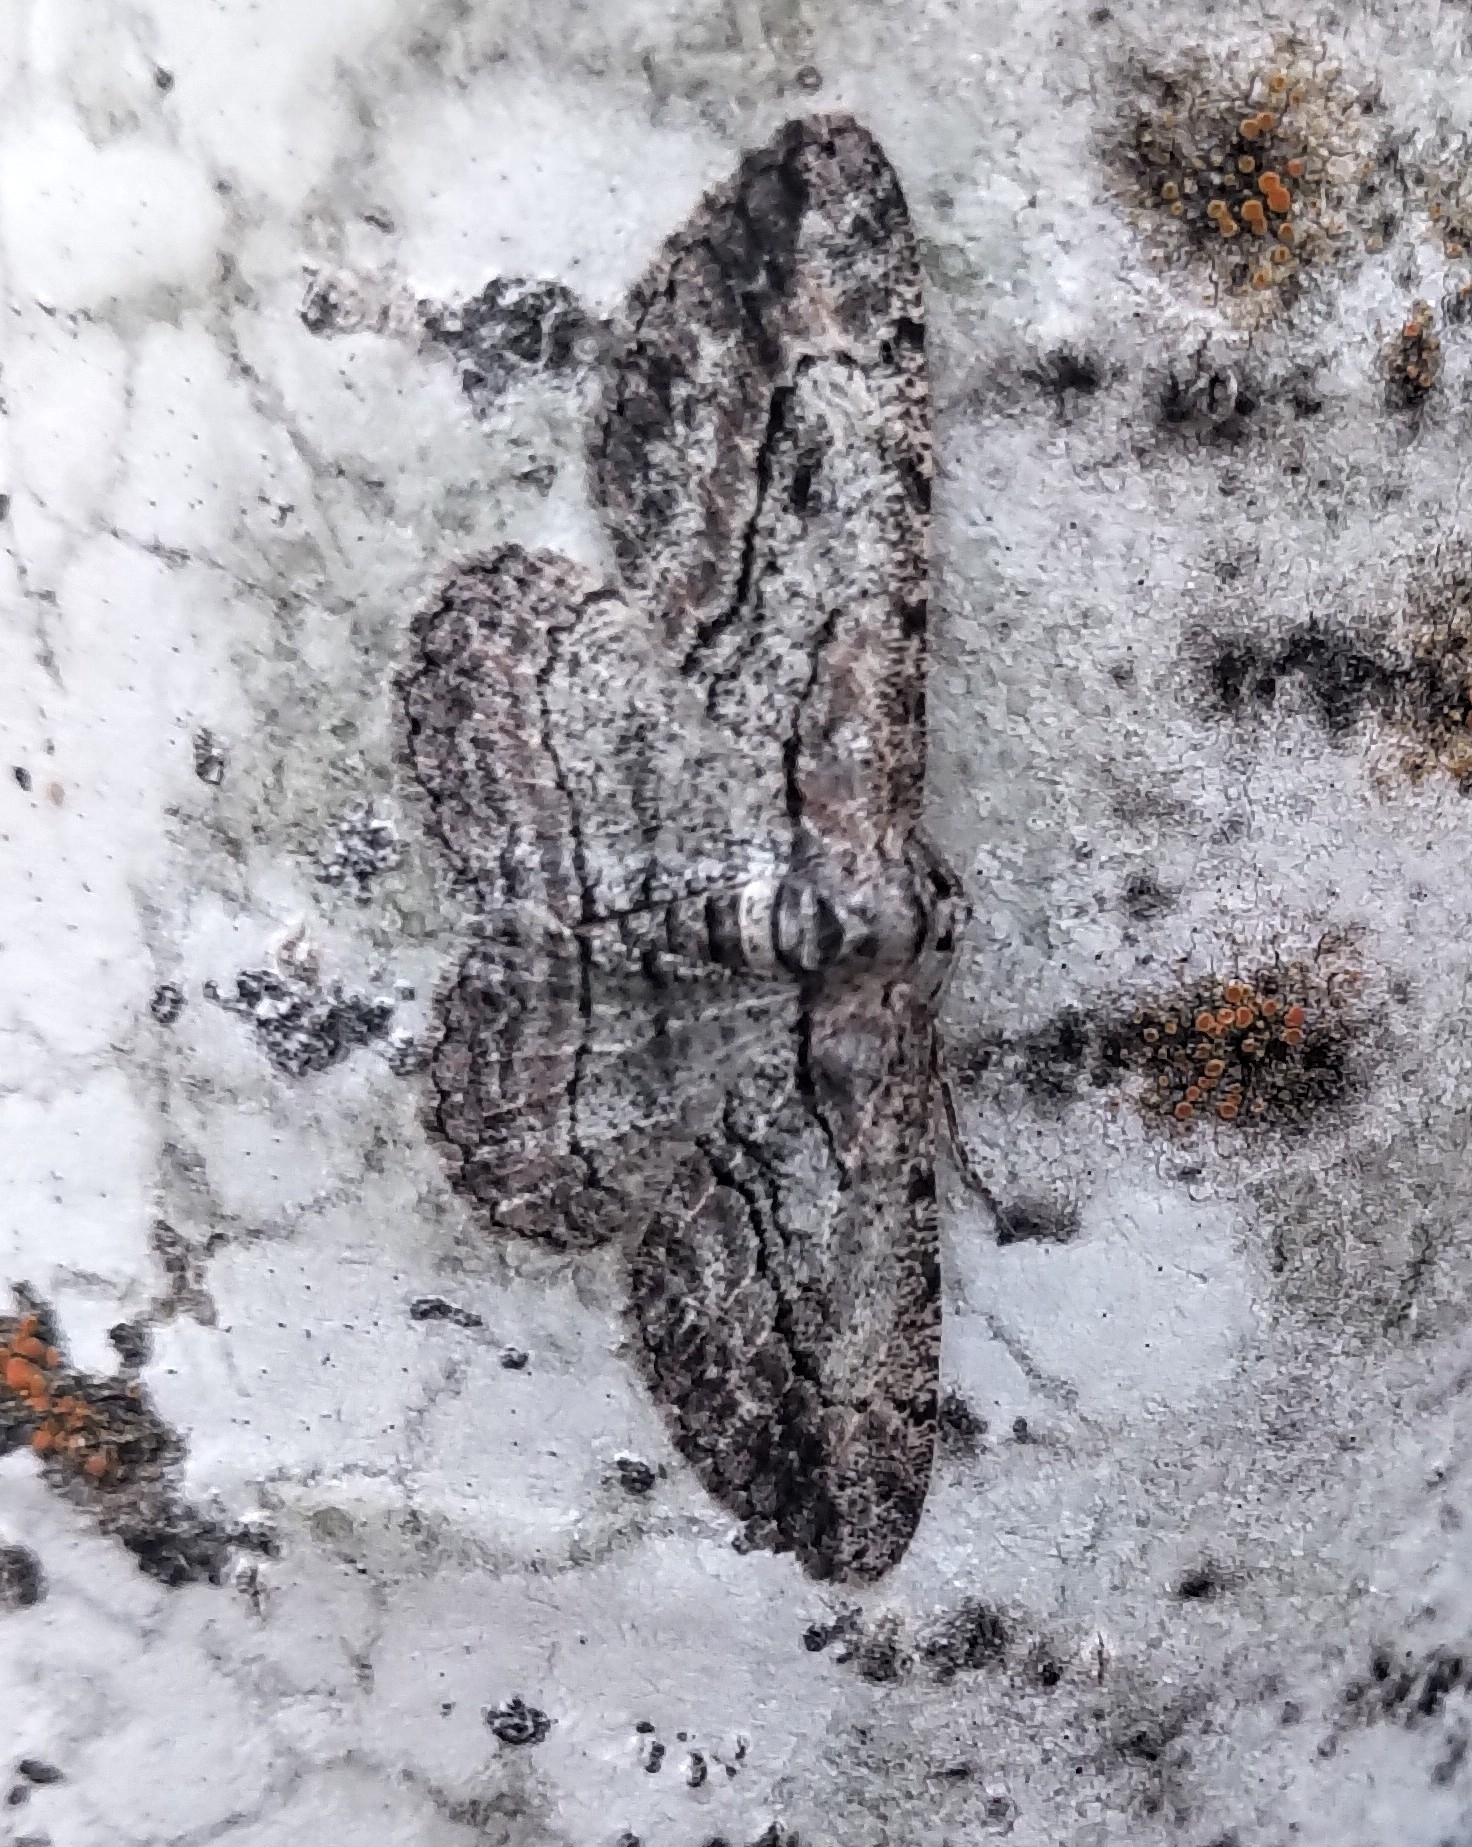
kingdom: Animalia
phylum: Arthropoda
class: Insecta
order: Lepidoptera
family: Geometridae
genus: Anavitrinella
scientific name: Anavitrinella pampinaria
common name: Common gray
